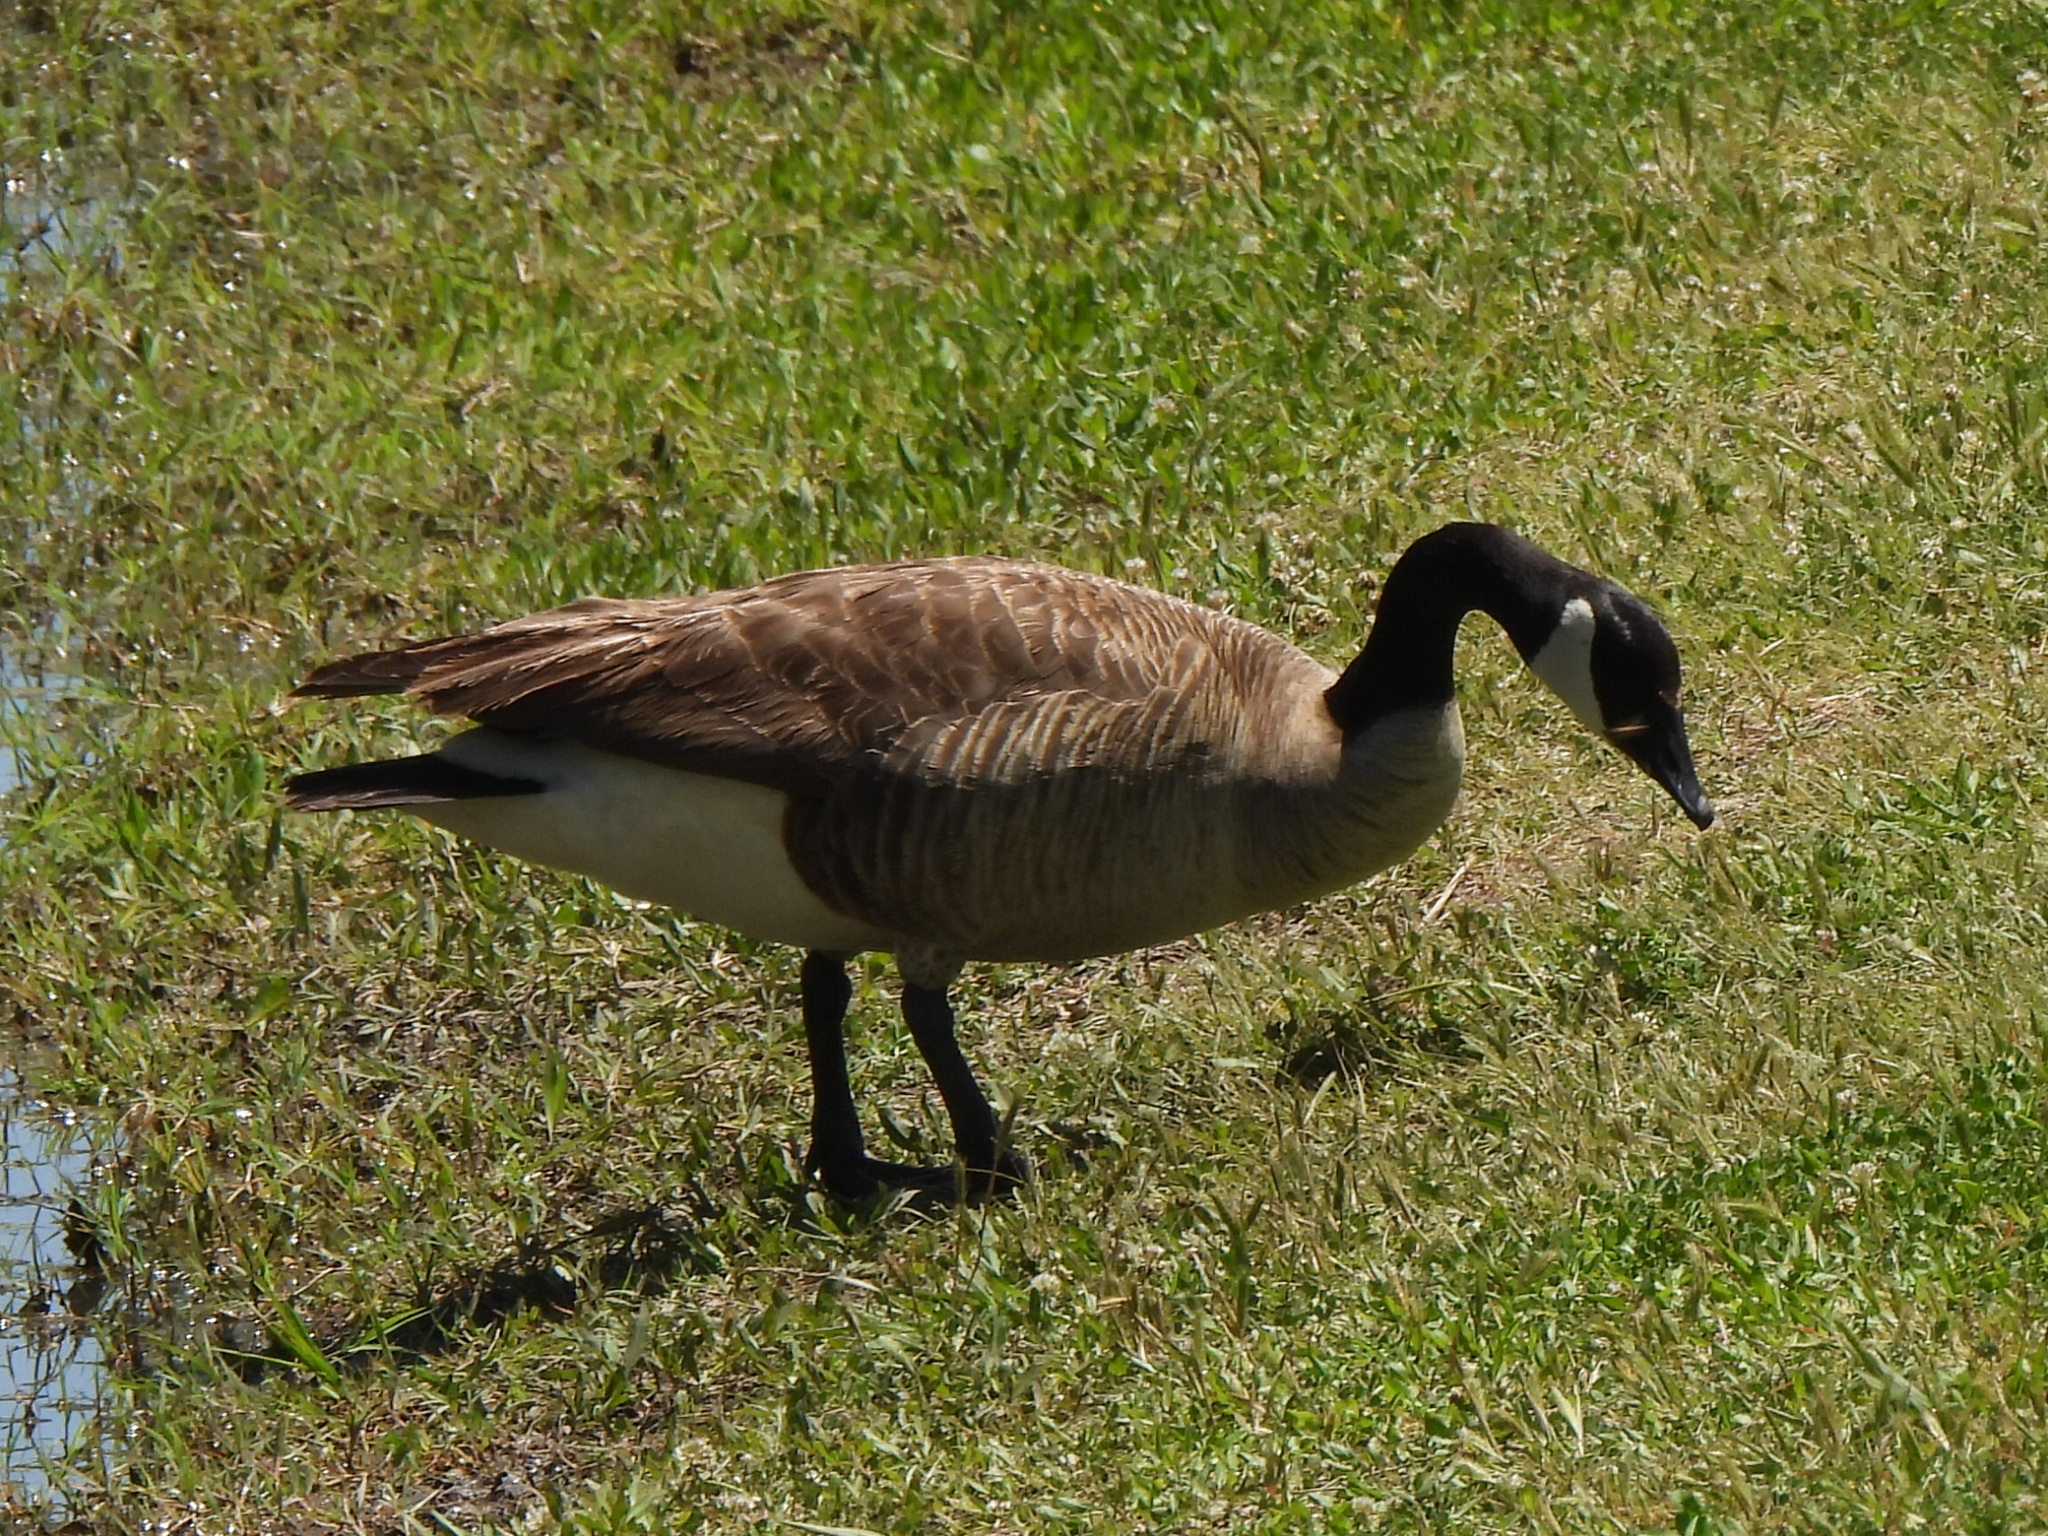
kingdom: Animalia
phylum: Chordata
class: Aves
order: Anseriformes
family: Anatidae
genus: Branta
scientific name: Branta canadensis
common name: Canada goose
